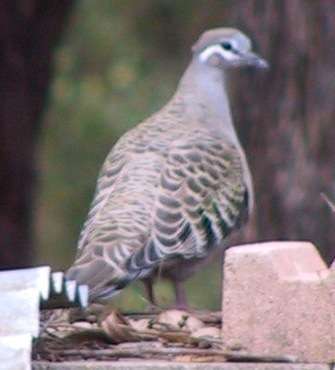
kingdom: Animalia
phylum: Chordata
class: Aves
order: Columbiformes
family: Columbidae
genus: Phaps
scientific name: Phaps chalcoptera
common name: Common bronzewing
